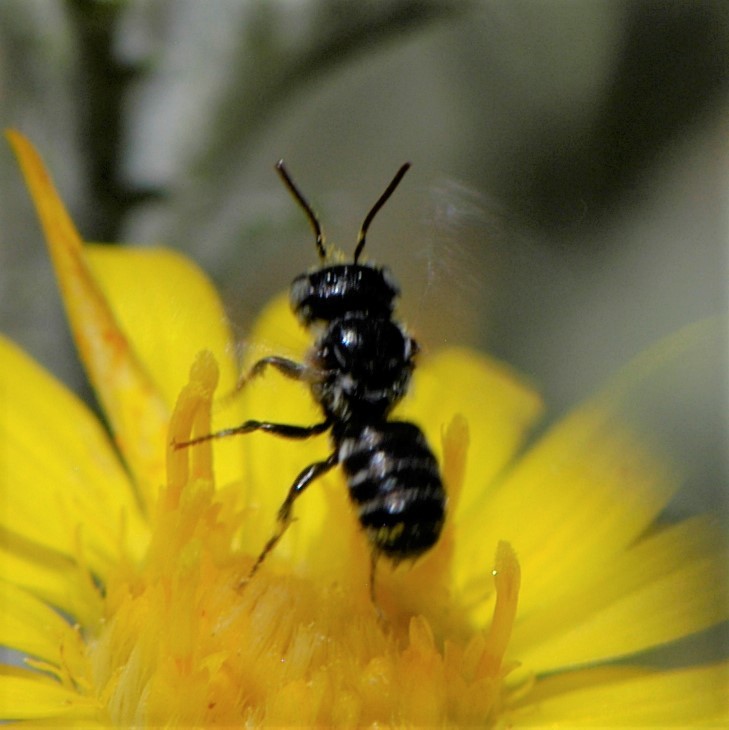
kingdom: Animalia
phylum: Arthropoda
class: Insecta
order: Hymenoptera
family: Megachilidae
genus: Ashmeadiella
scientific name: Ashmeadiella
